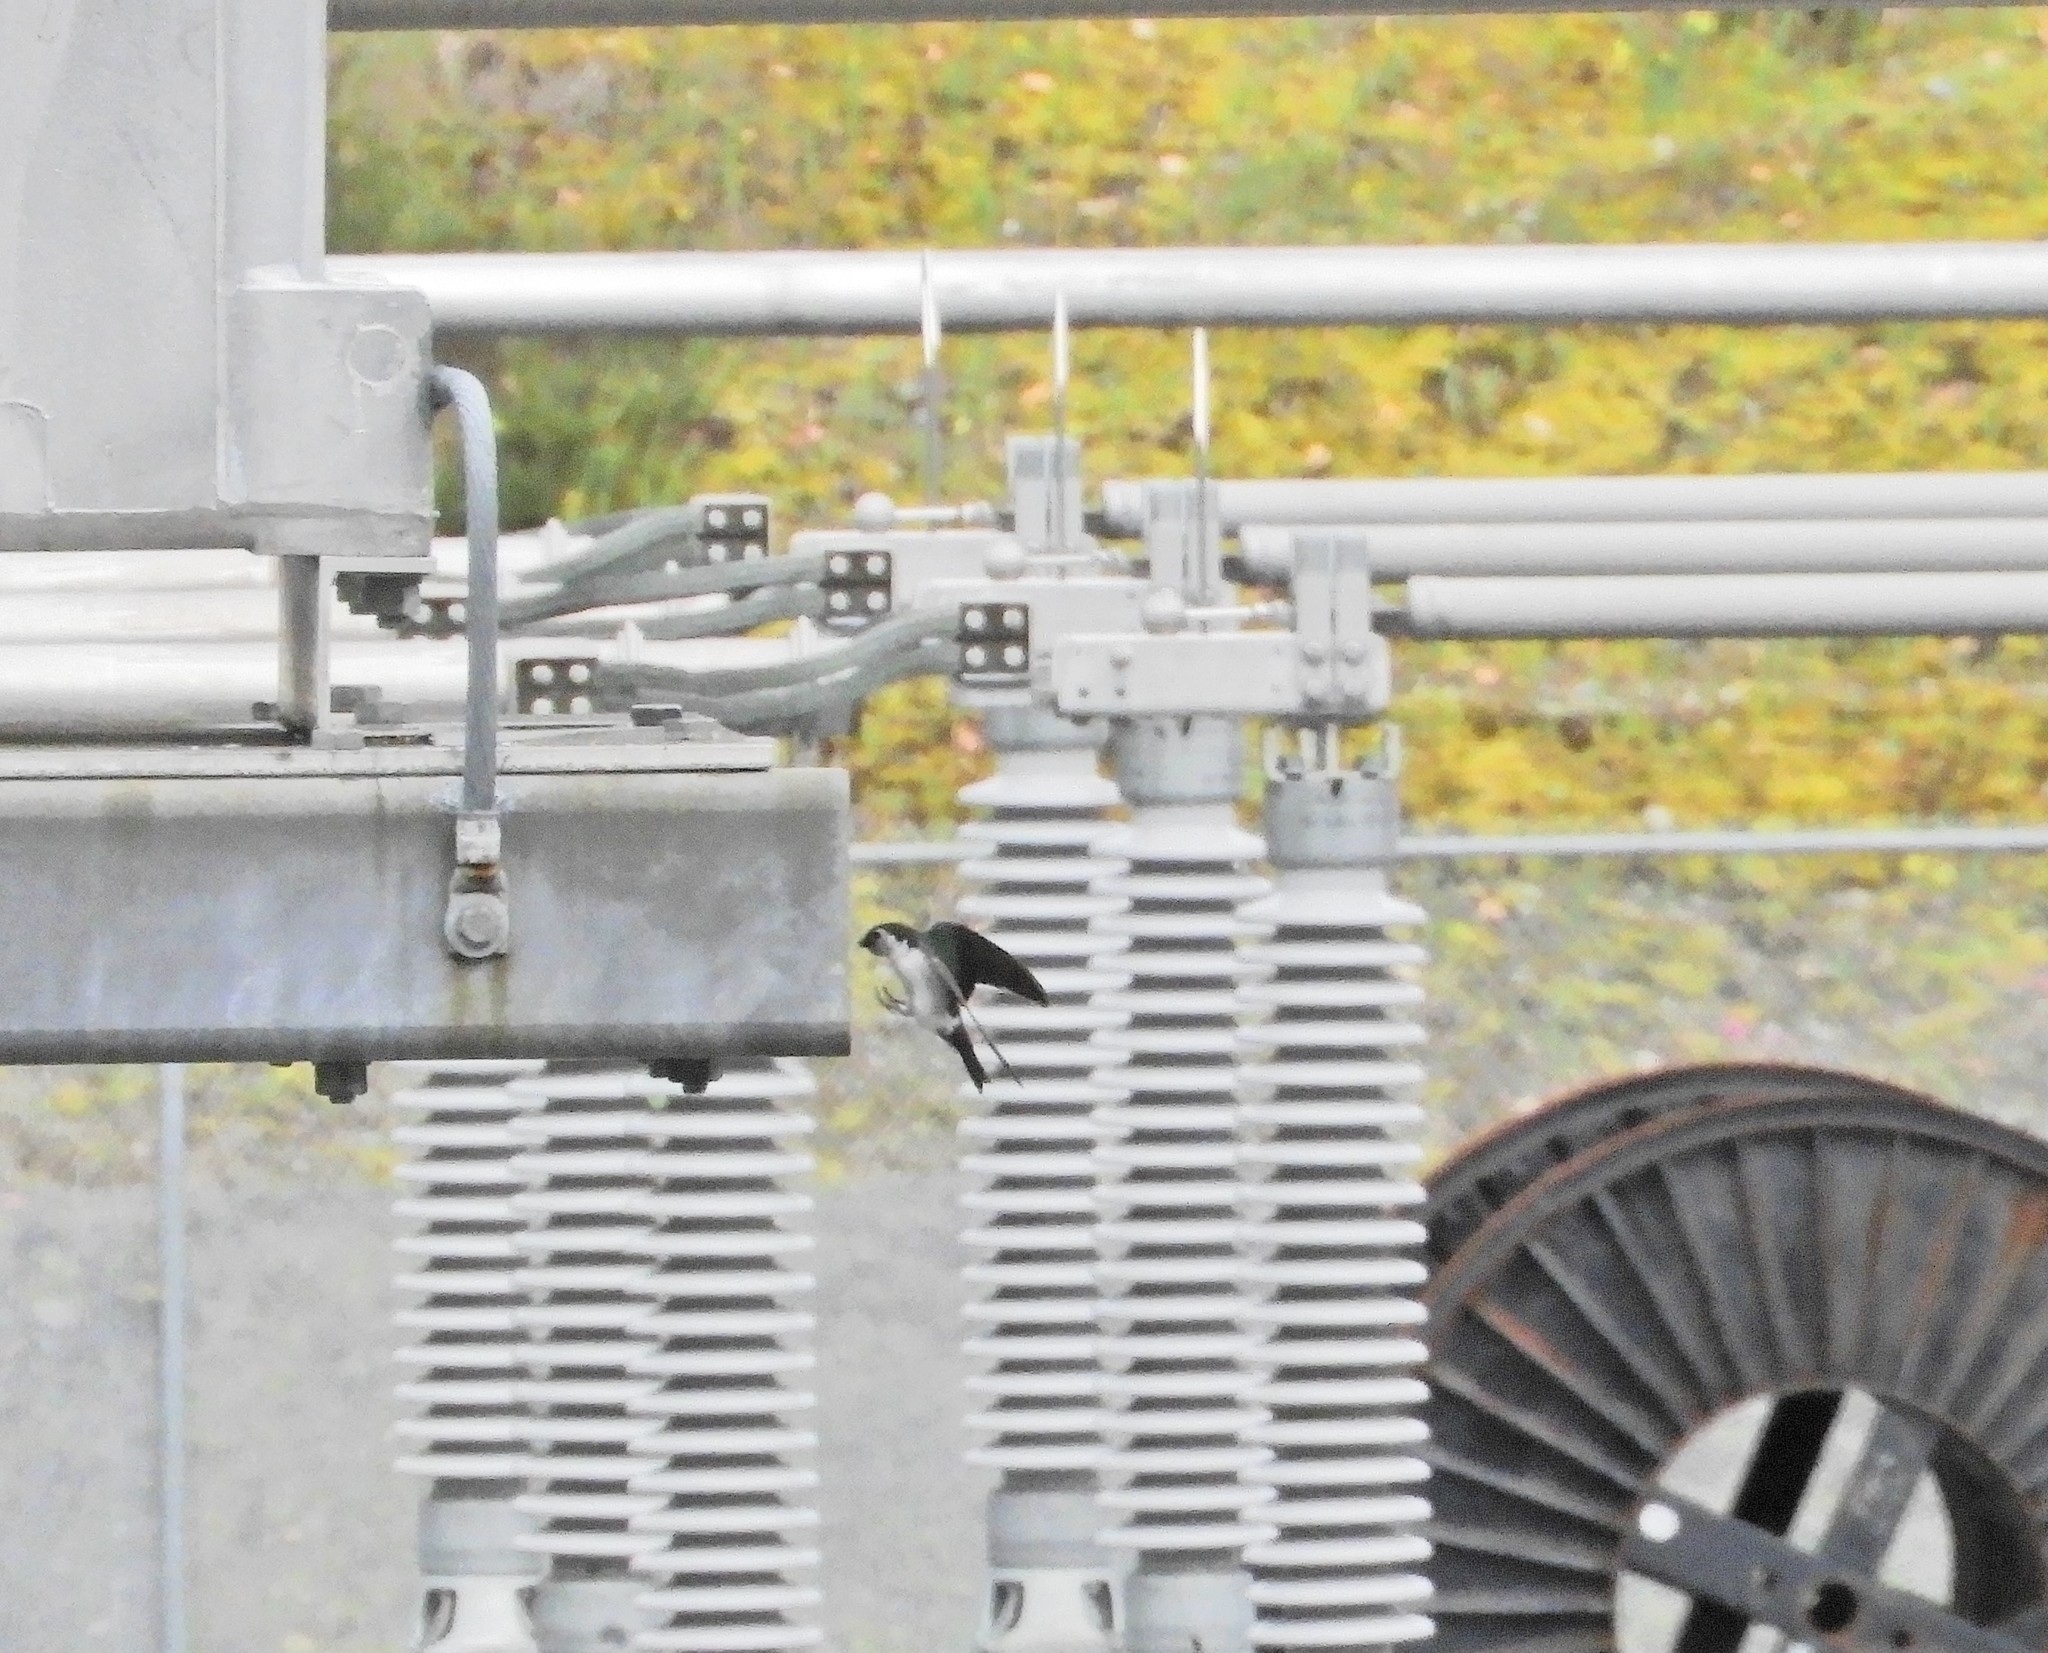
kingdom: Animalia
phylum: Chordata
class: Aves
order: Passeriformes
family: Hirundinidae
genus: Tachycineta
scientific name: Tachycineta thalassina
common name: Violet-green swallow
